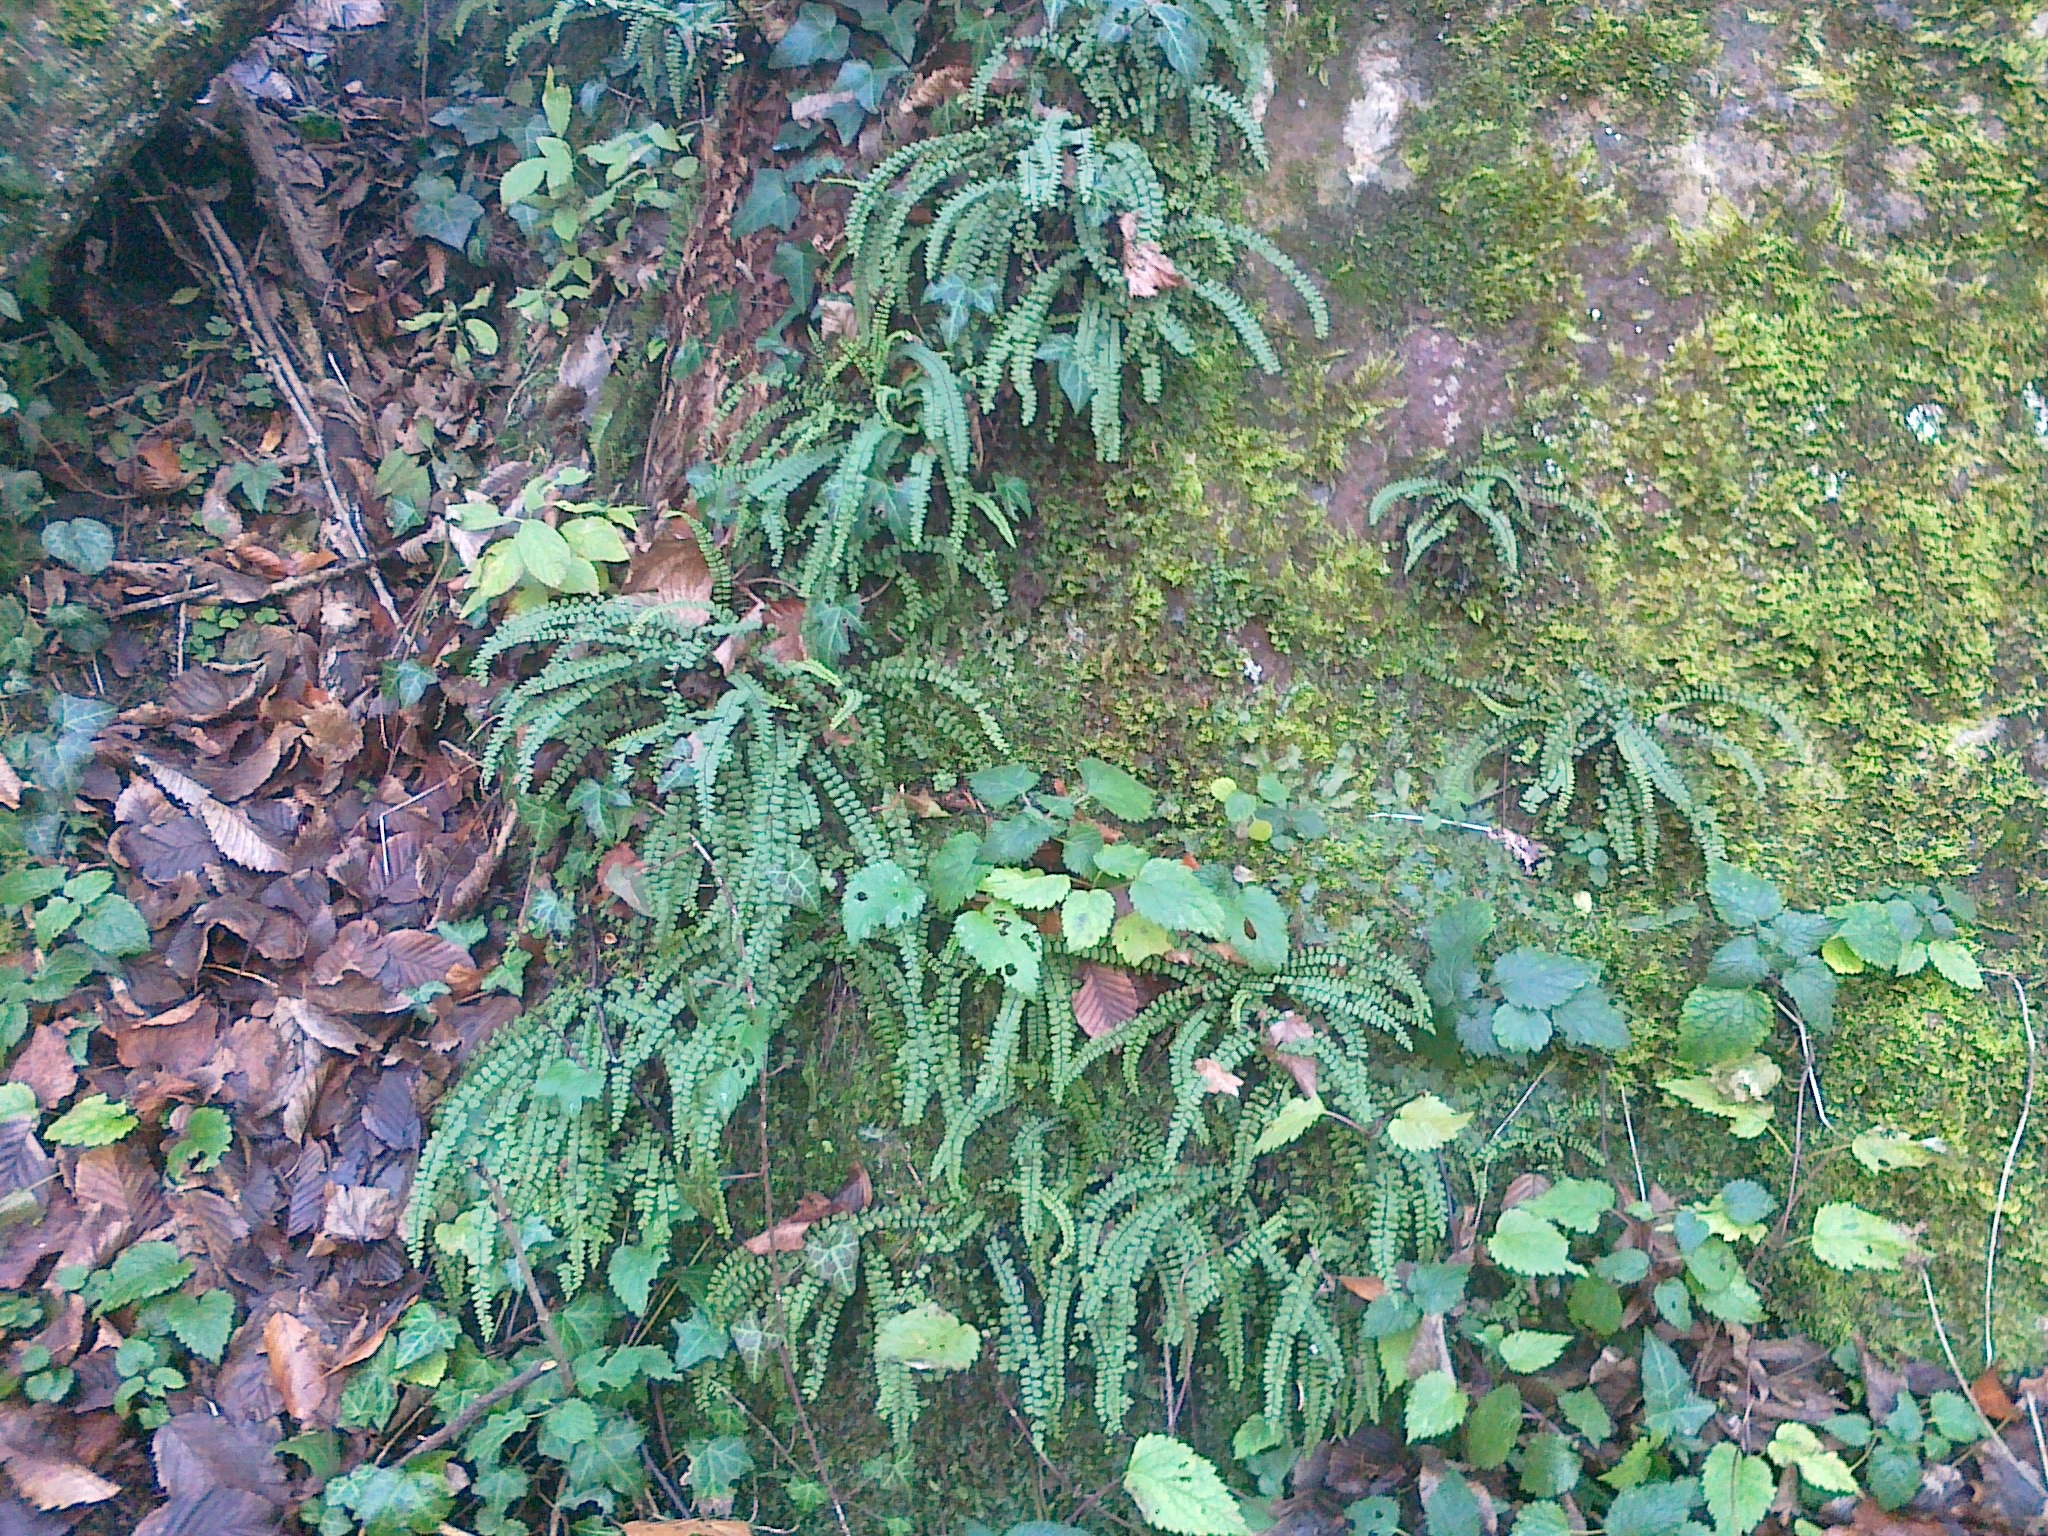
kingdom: Plantae
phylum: Tracheophyta
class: Polypodiopsida
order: Polypodiales
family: Aspleniaceae
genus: Asplenium
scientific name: Asplenium quadrivalens
